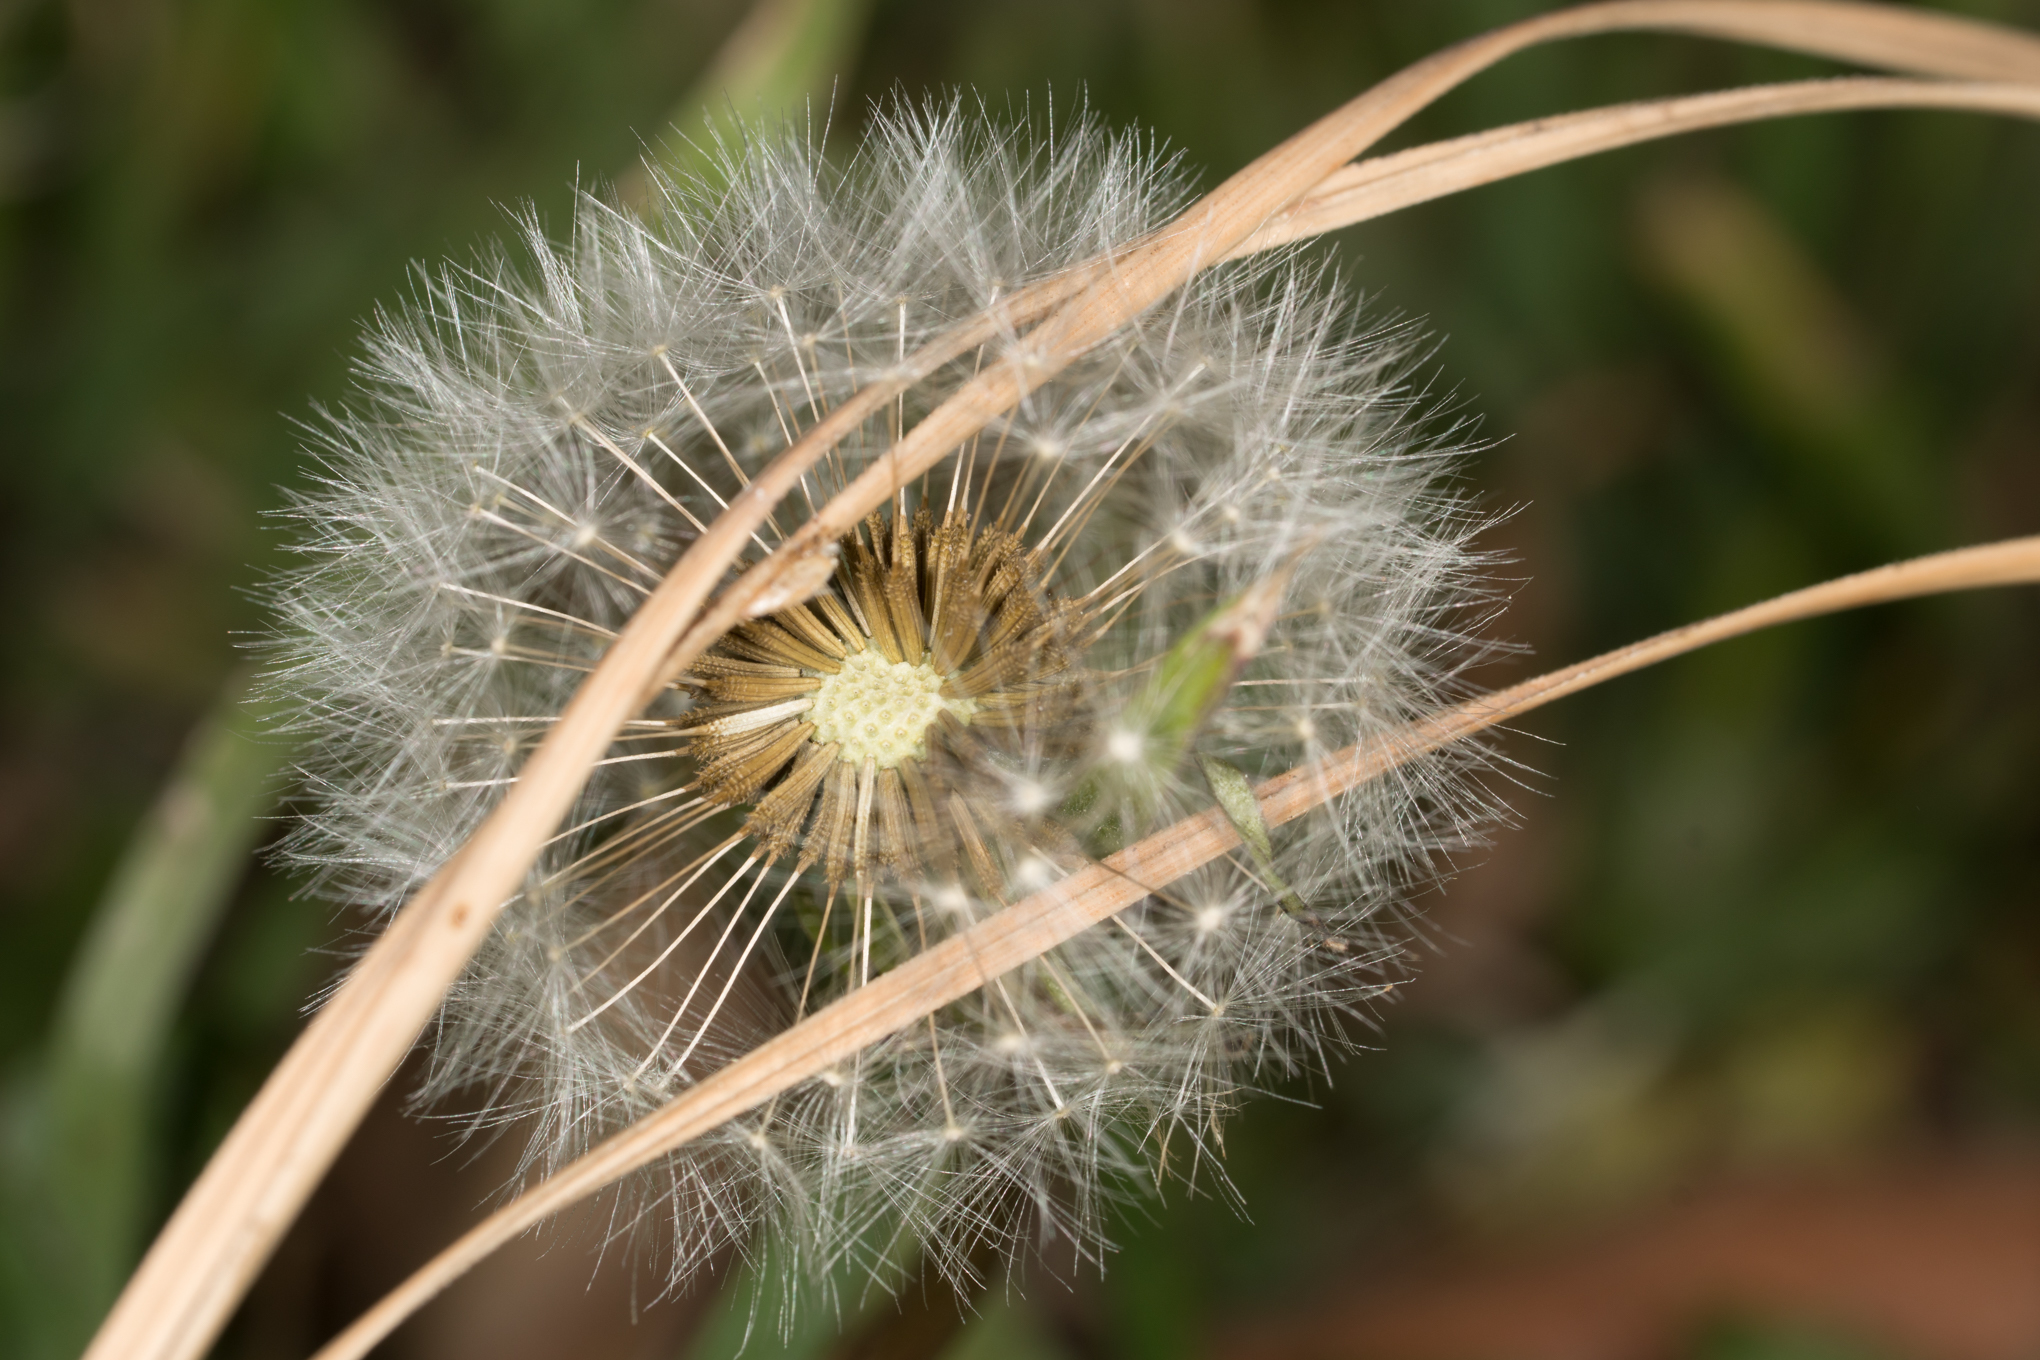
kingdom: Plantae
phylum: Tracheophyta
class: Magnoliopsida
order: Asterales
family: Asteraceae
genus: Taraxacum
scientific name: Taraxacum officinale
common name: Common dandelion
